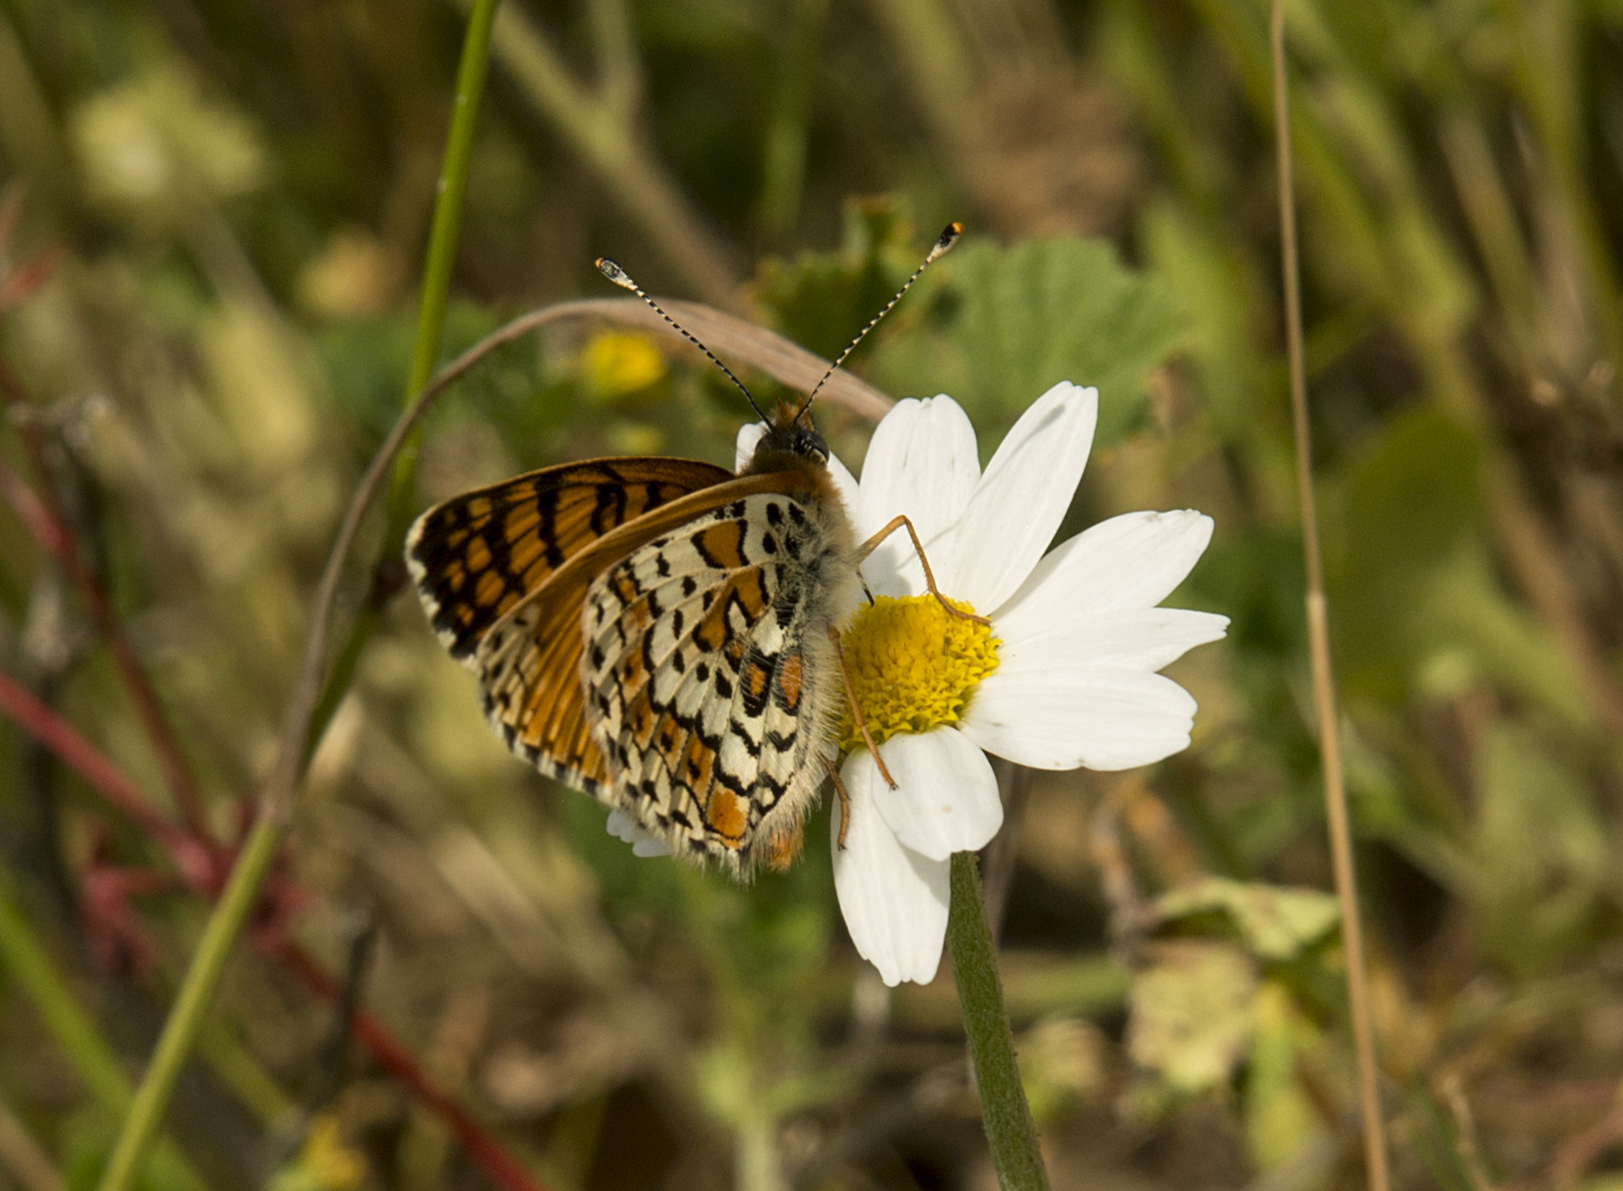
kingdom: Animalia
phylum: Arthropoda
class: Insecta
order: Lepidoptera
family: Nymphalidae
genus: Melitaea
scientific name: Melitaea cinxia
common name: Glanville fritillary
